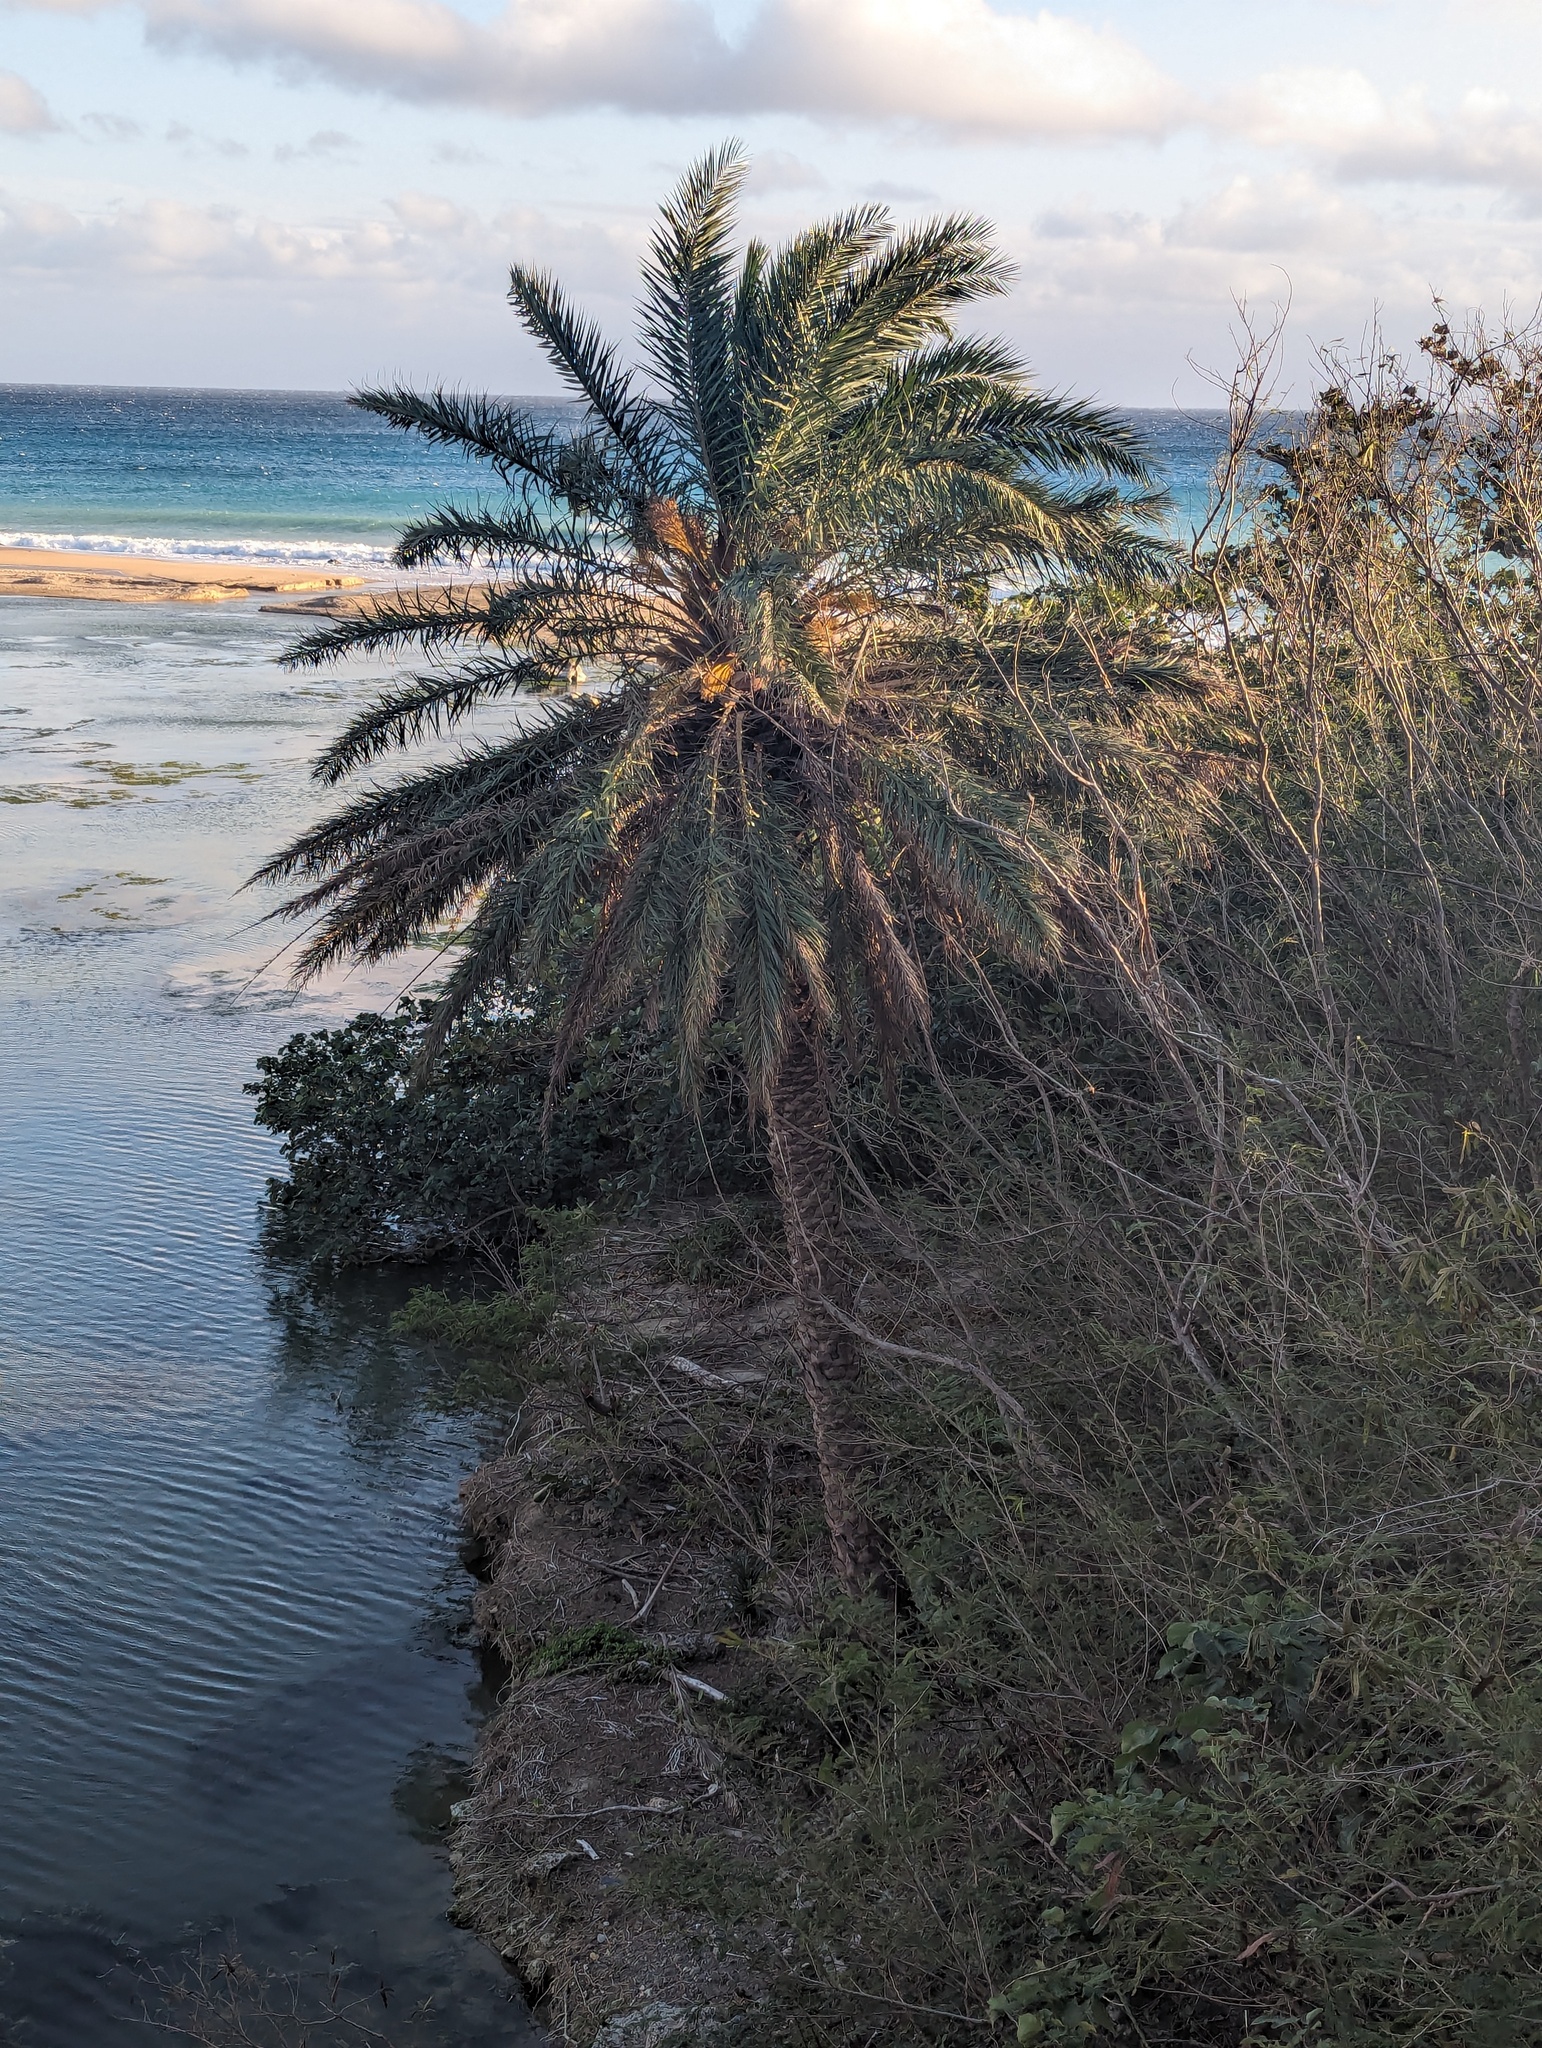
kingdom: Plantae
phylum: Tracheophyta
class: Liliopsida
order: Arecales
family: Arecaceae
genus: Phoenix
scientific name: Phoenix loureiroi
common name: Loureiro's palm
